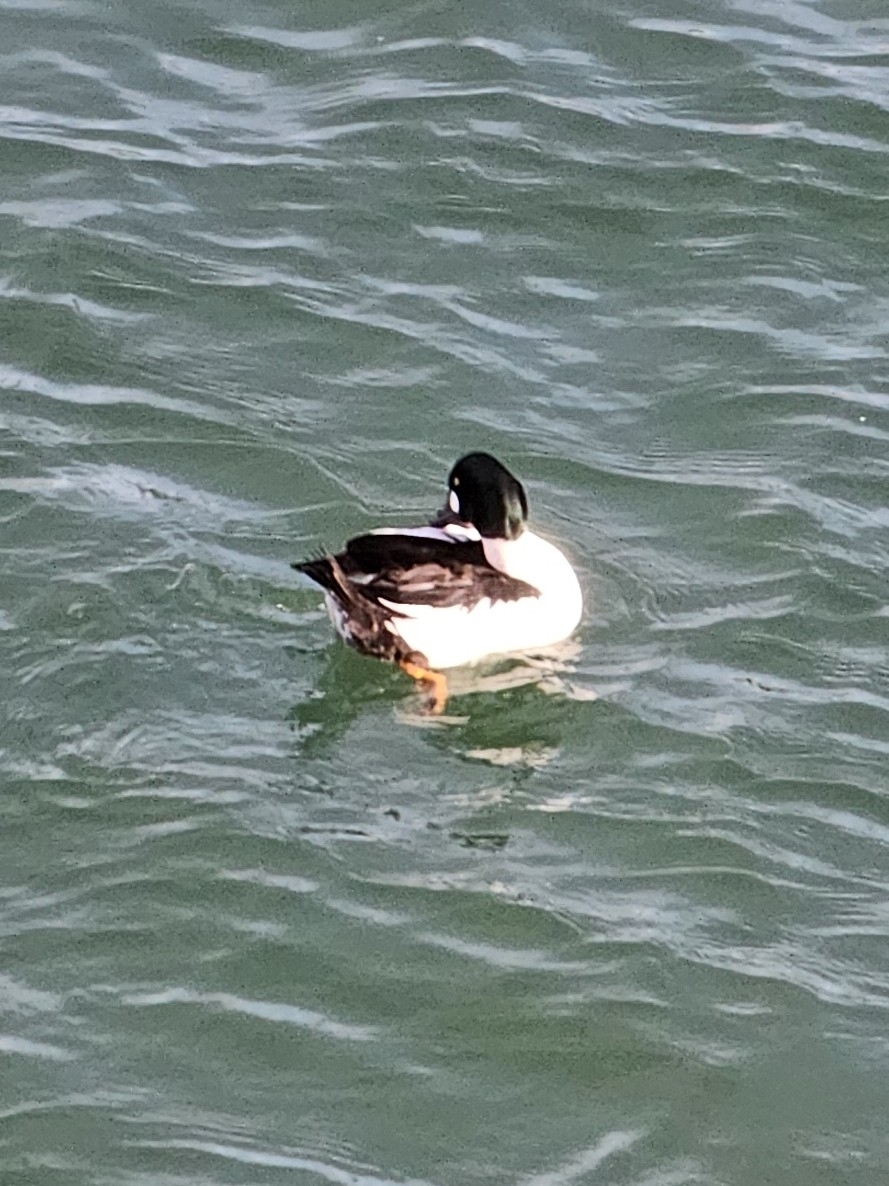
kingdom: Animalia
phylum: Chordata
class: Aves
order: Anseriformes
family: Anatidae
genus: Bucephala
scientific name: Bucephala clangula
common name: Common goldeneye
